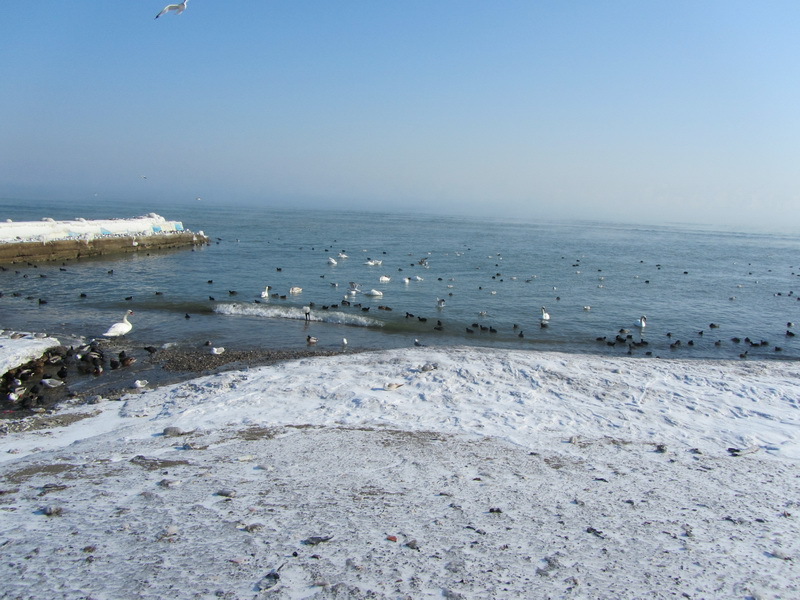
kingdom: Animalia
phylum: Chordata
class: Aves
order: Anseriformes
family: Anatidae
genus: Cygnus
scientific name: Cygnus olor
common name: Mute swan
